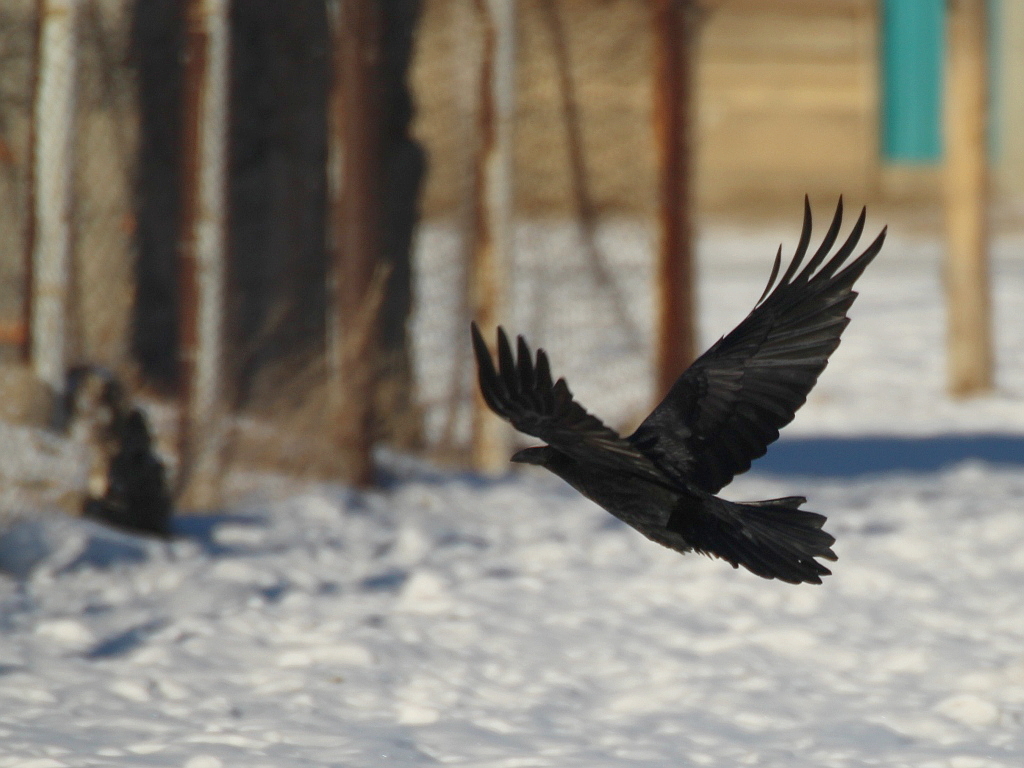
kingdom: Animalia
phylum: Chordata
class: Aves
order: Passeriformes
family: Corvidae
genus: Corvus
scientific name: Corvus corax
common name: Common raven
